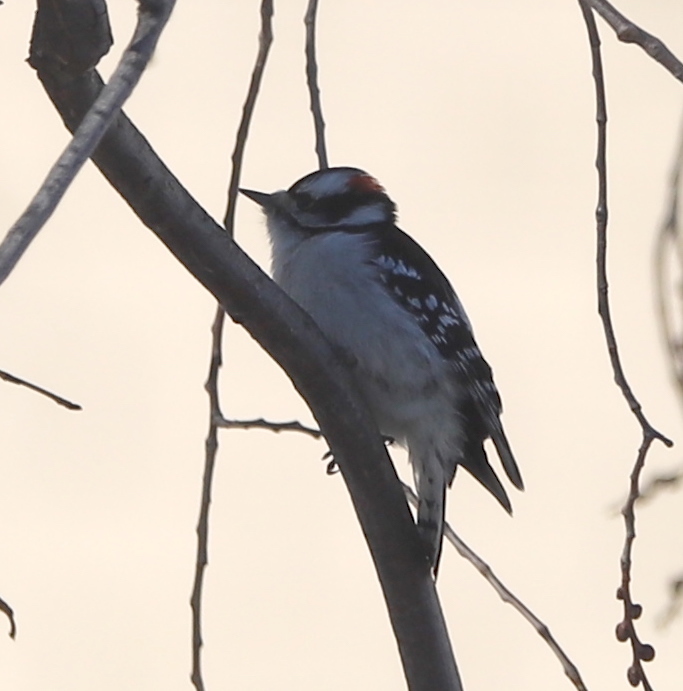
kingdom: Animalia
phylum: Chordata
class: Aves
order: Piciformes
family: Picidae
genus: Dryobates
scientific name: Dryobates pubescens
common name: Downy woodpecker
